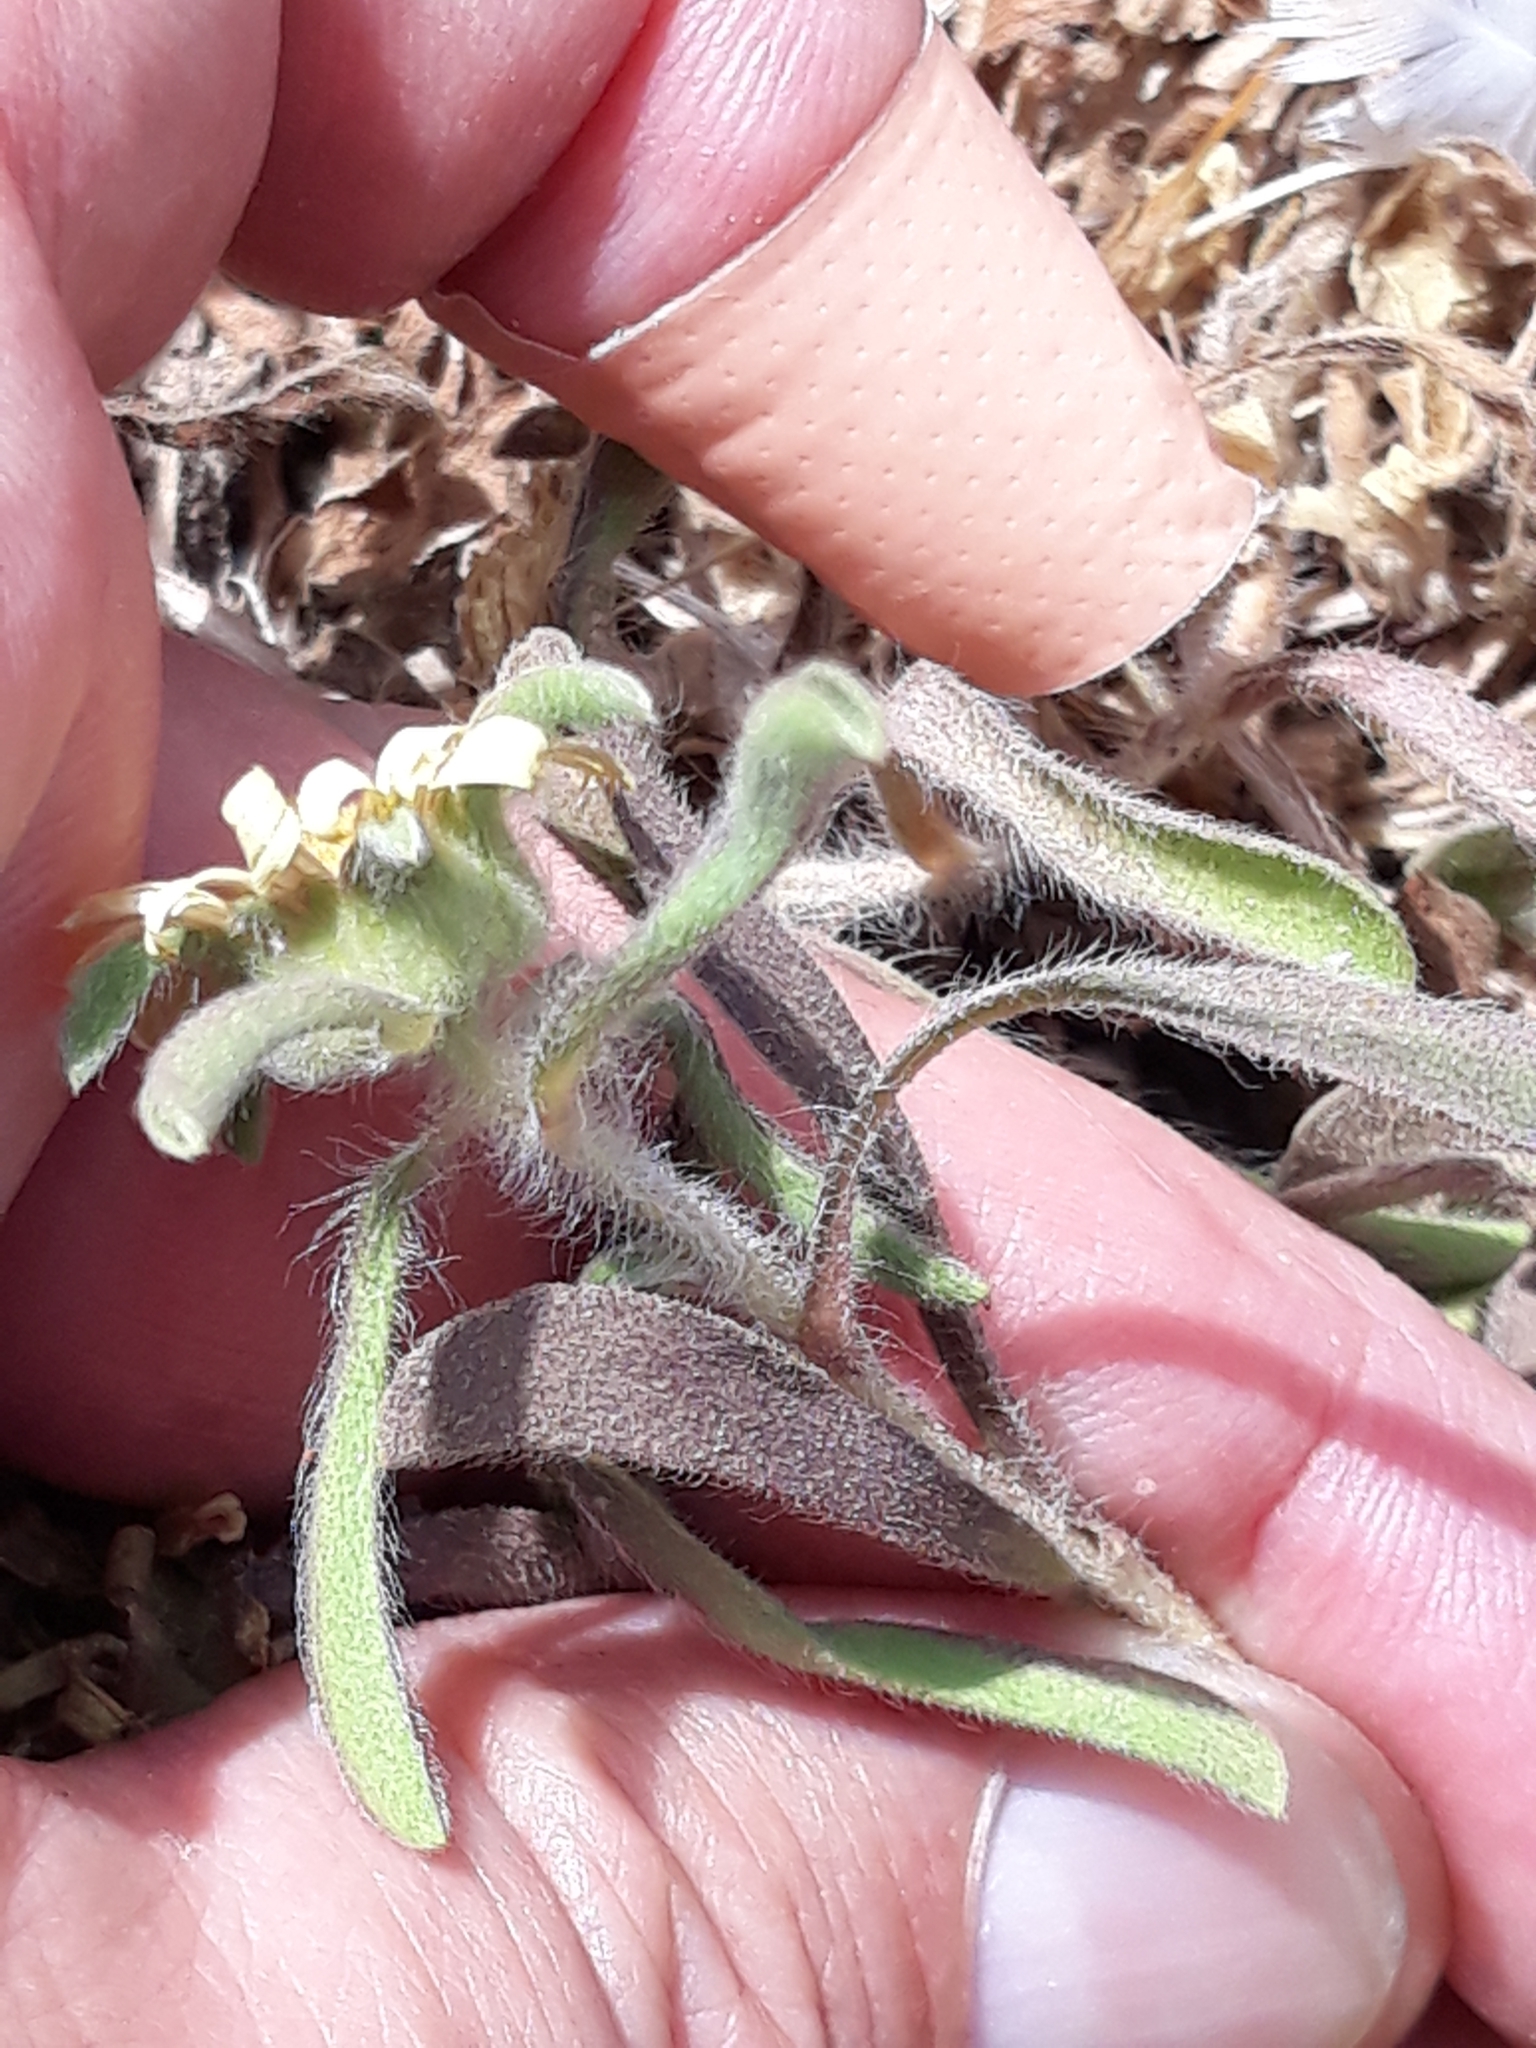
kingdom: Plantae
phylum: Tracheophyta
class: Magnoliopsida
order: Asterales
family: Asteraceae
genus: Pallenis
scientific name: Pallenis maritima
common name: Golden coin daisy
